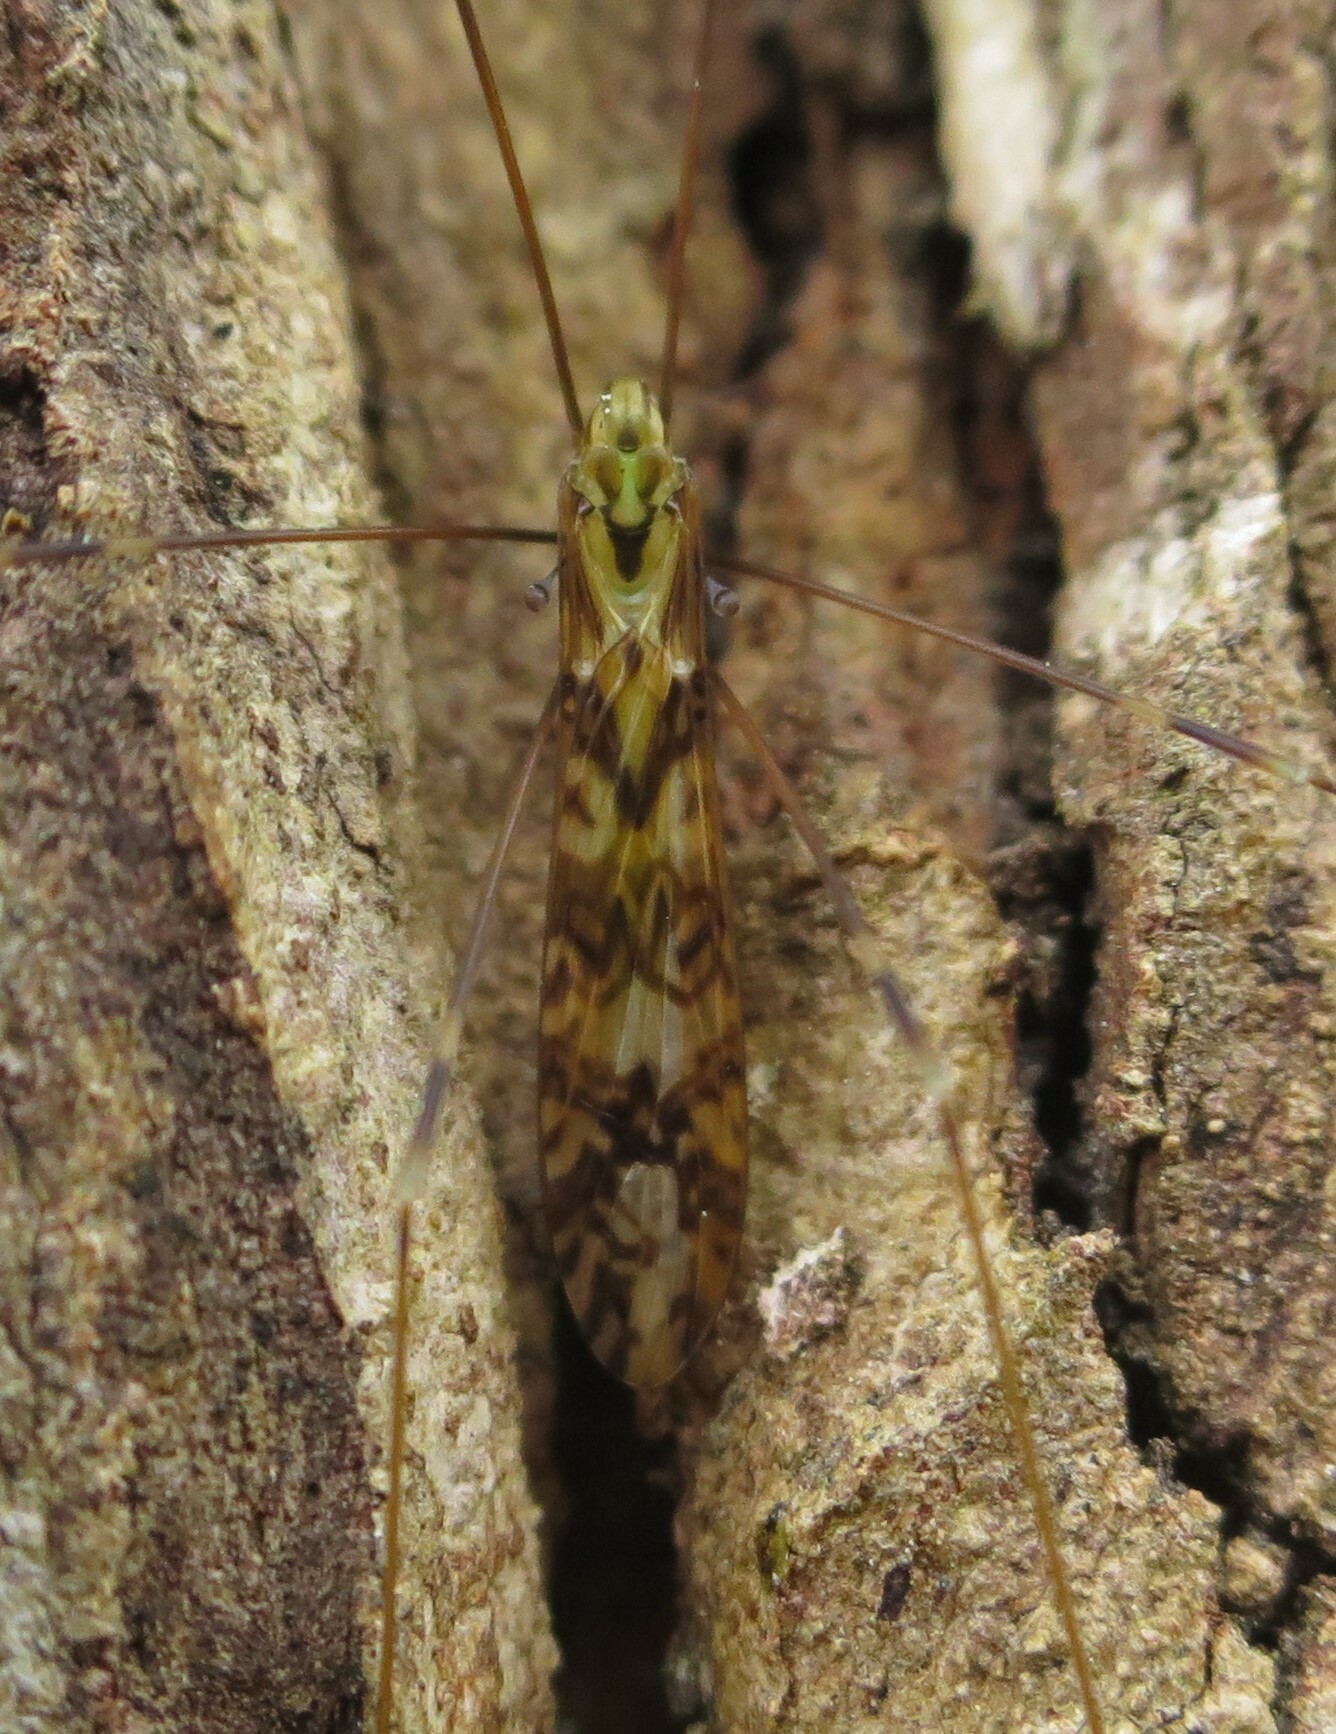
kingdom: Animalia
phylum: Arthropoda
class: Insecta
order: Diptera
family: Limoniidae
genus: Discobola
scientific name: Discobola dohrni
